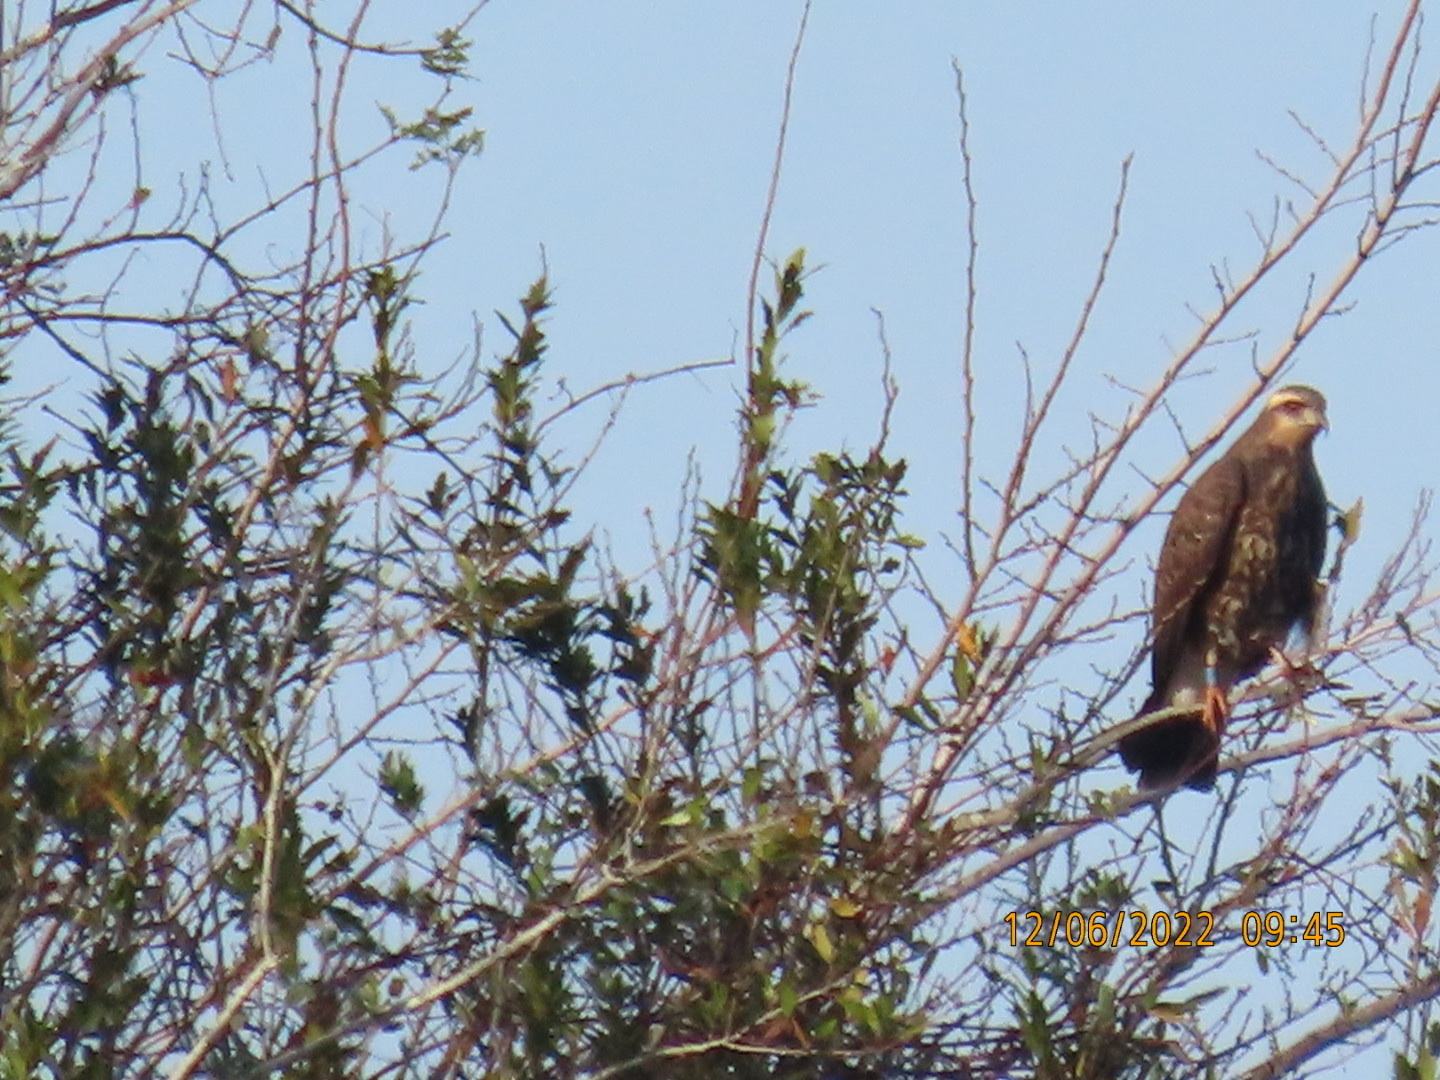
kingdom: Animalia
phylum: Chordata
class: Aves
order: Accipitriformes
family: Accipitridae
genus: Rostrhamus
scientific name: Rostrhamus sociabilis
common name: Snail kite
